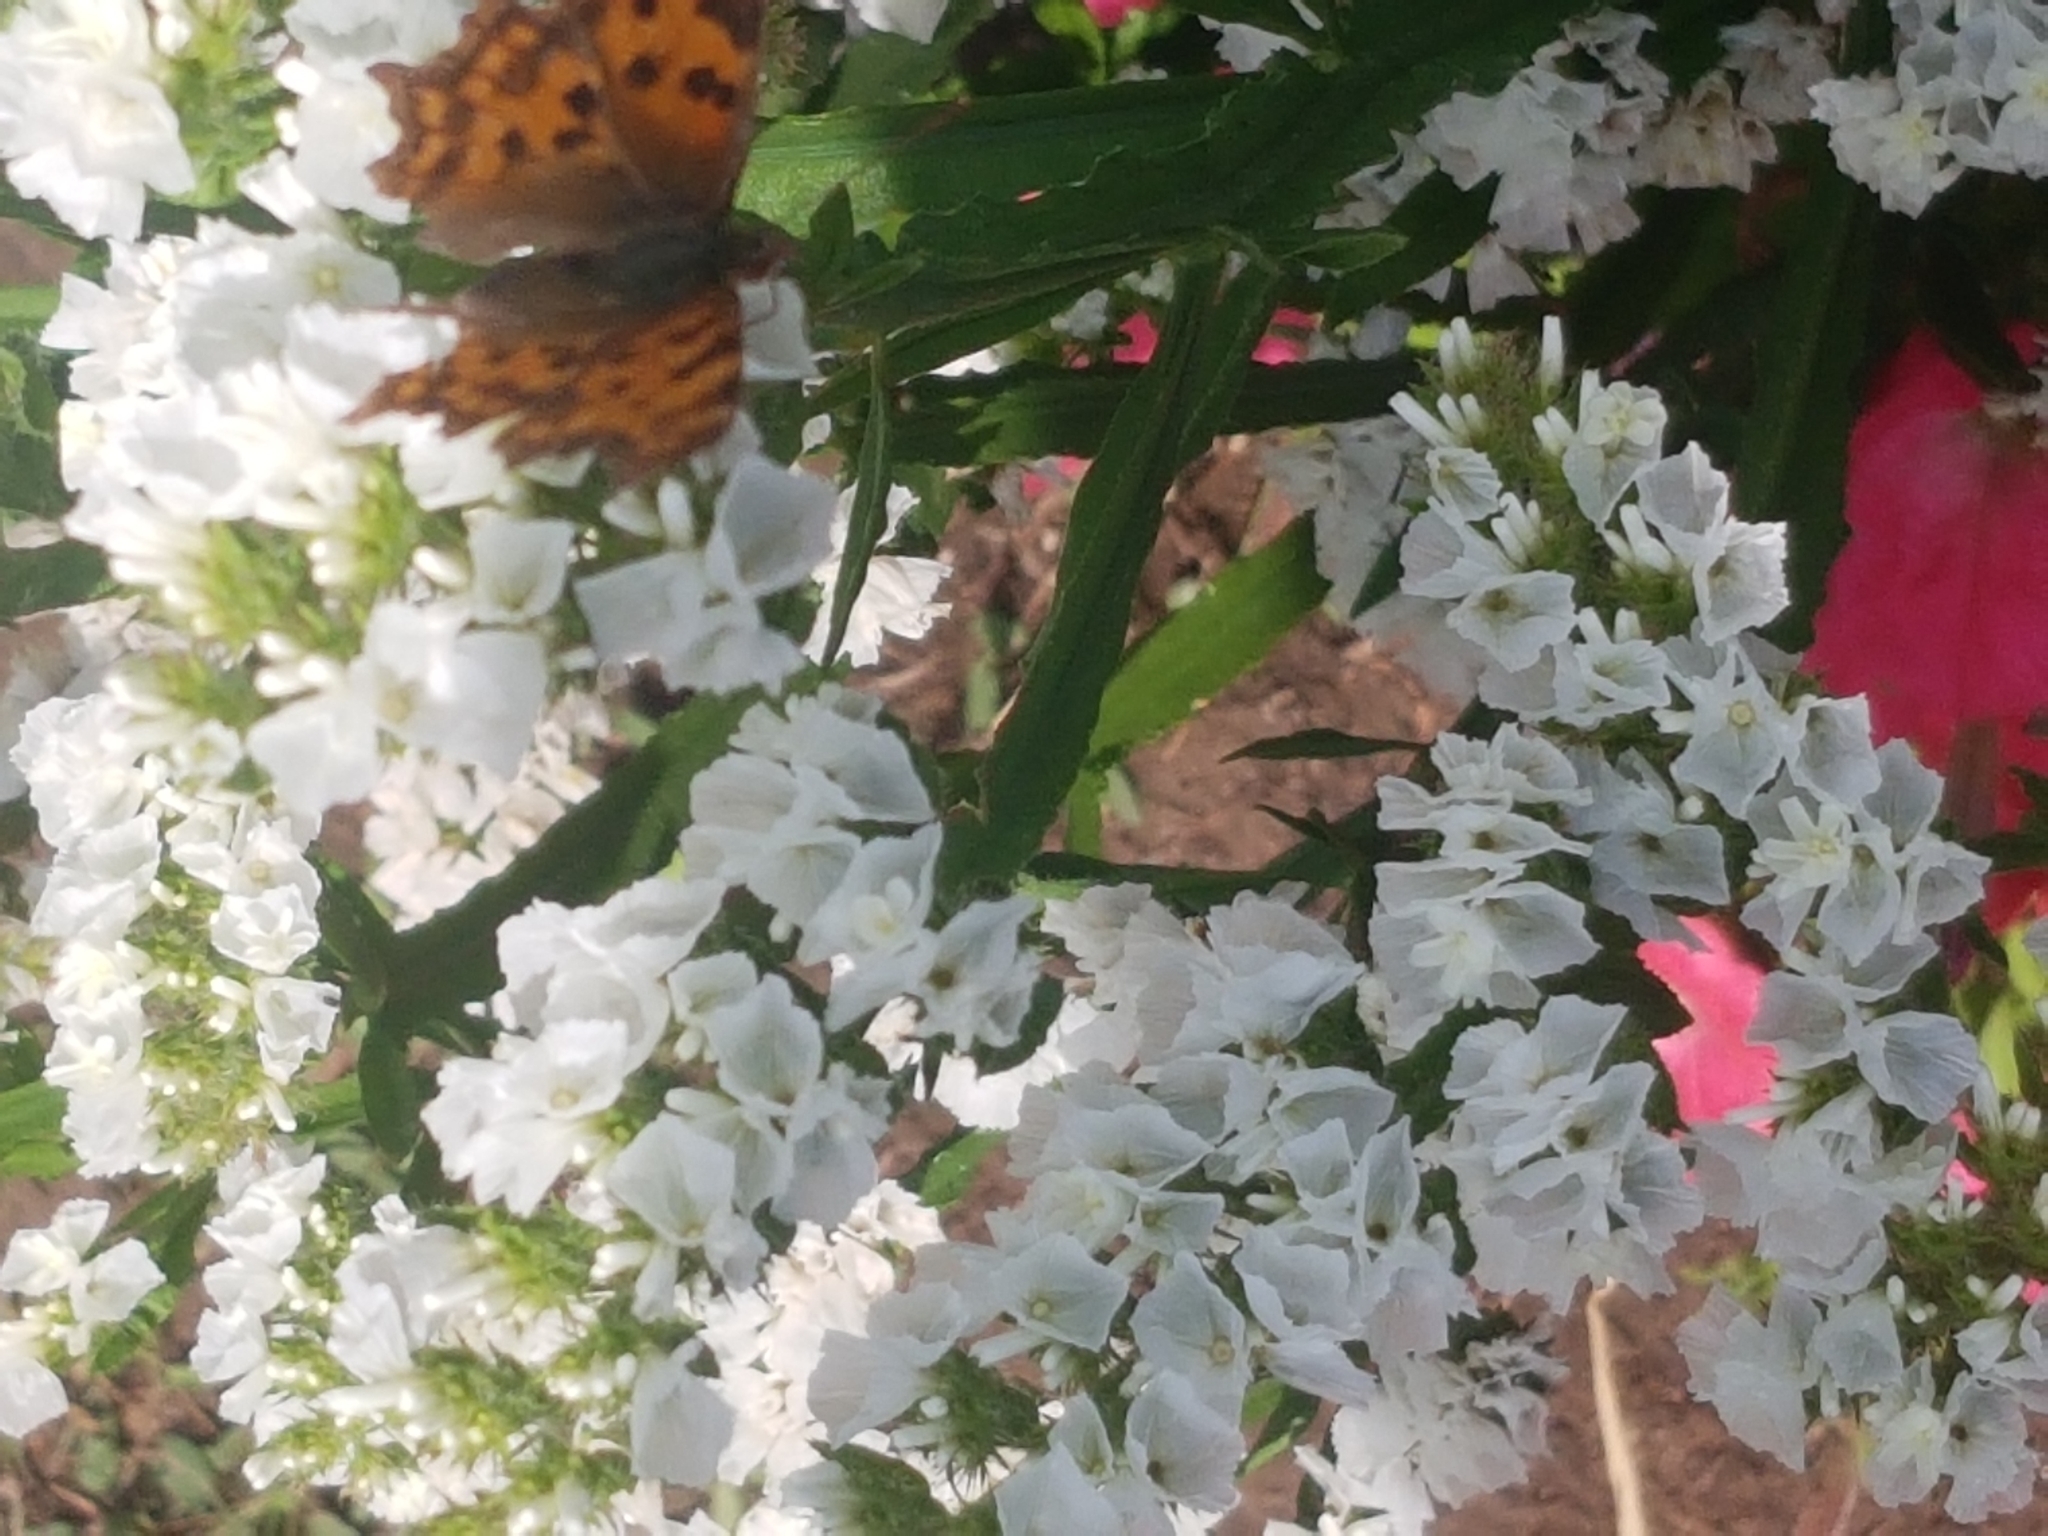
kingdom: Animalia
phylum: Arthropoda
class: Insecta
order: Lepidoptera
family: Nymphalidae
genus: Polygonia
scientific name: Polygonia c-album
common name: Comma
